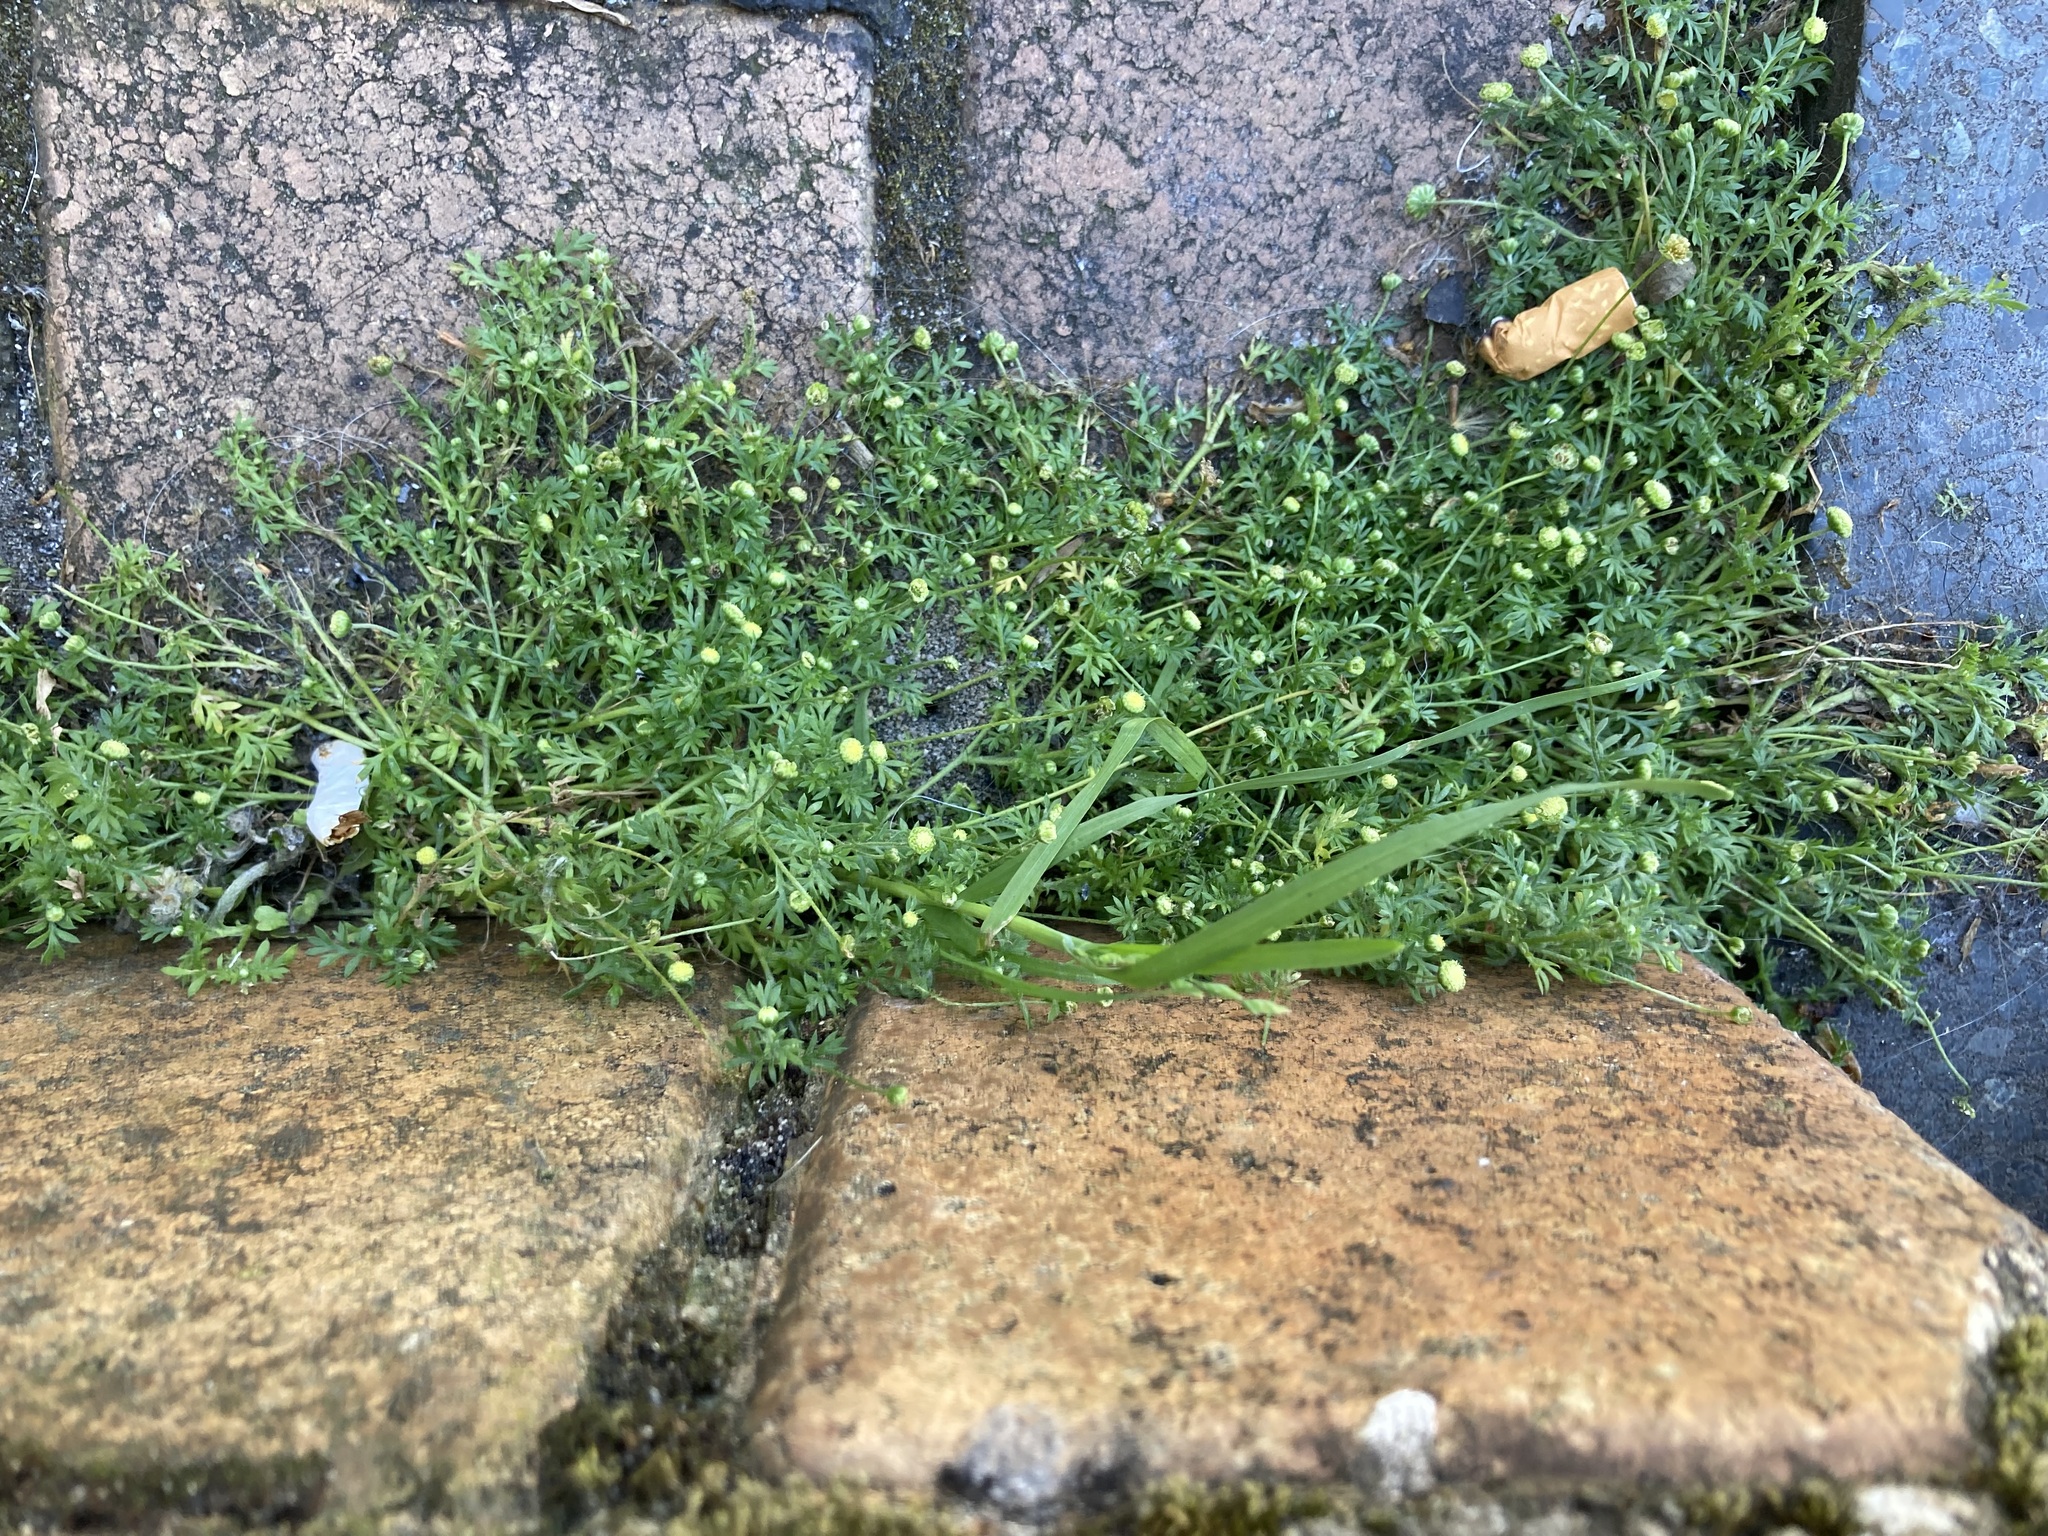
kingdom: Plantae
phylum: Tracheophyta
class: Magnoliopsida
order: Asterales
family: Asteraceae
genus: Cotula
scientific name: Cotula australis
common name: Australian waterbuttons
